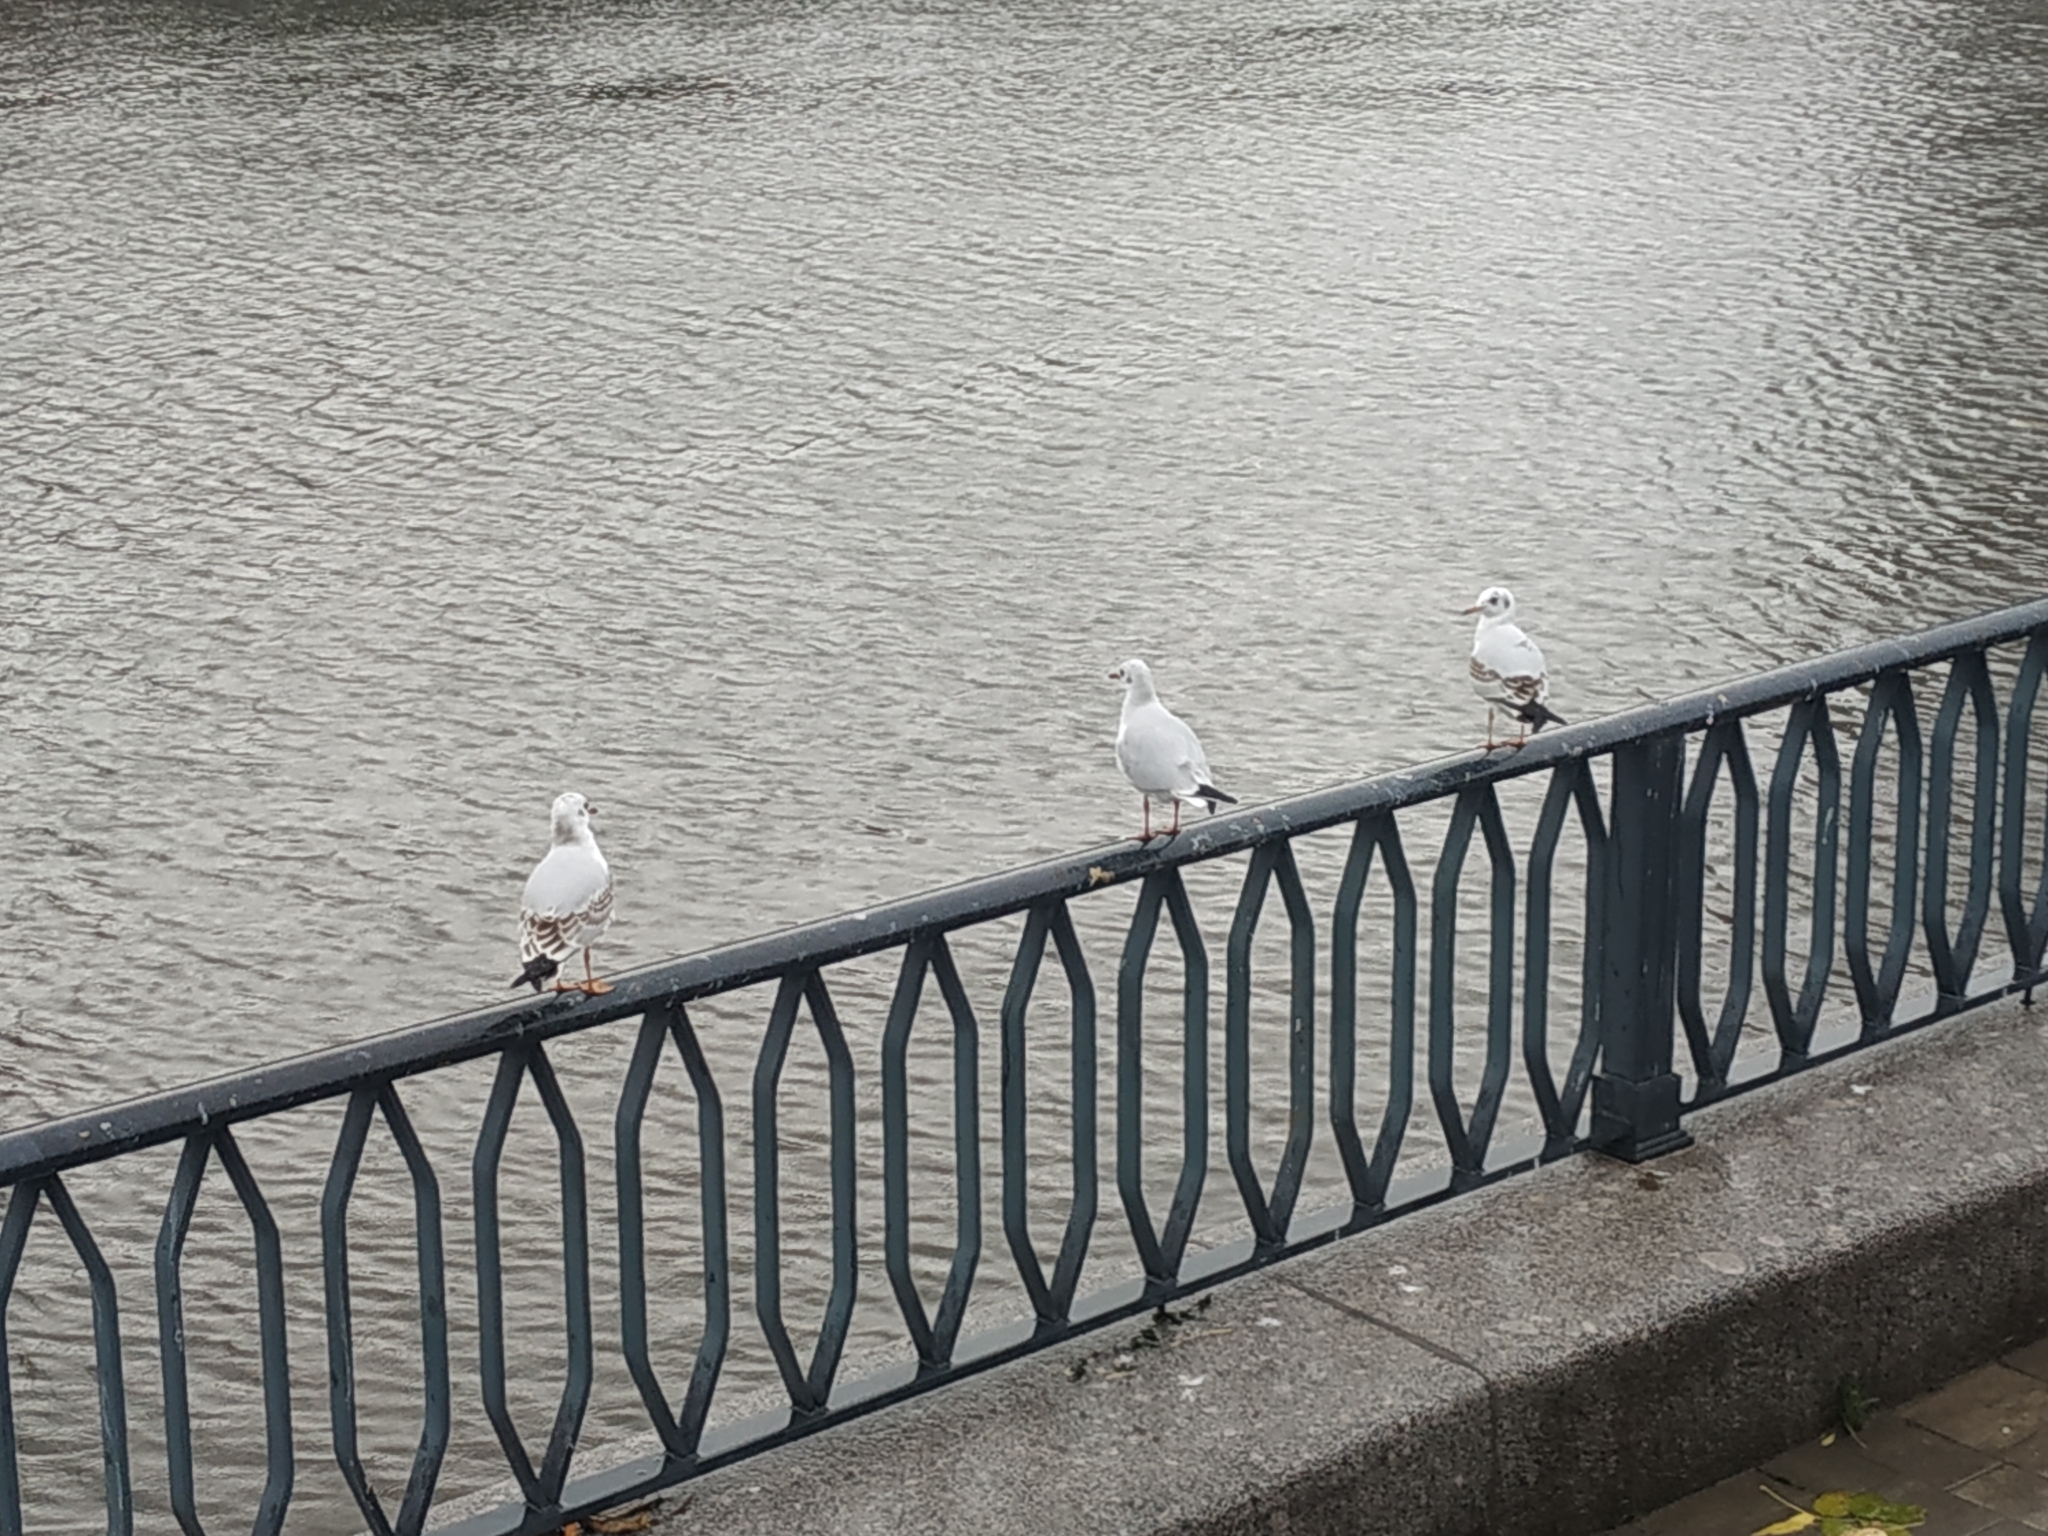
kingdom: Animalia
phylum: Chordata
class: Aves
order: Charadriiformes
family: Laridae
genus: Chroicocephalus
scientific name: Chroicocephalus ridibundus
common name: Black-headed gull
